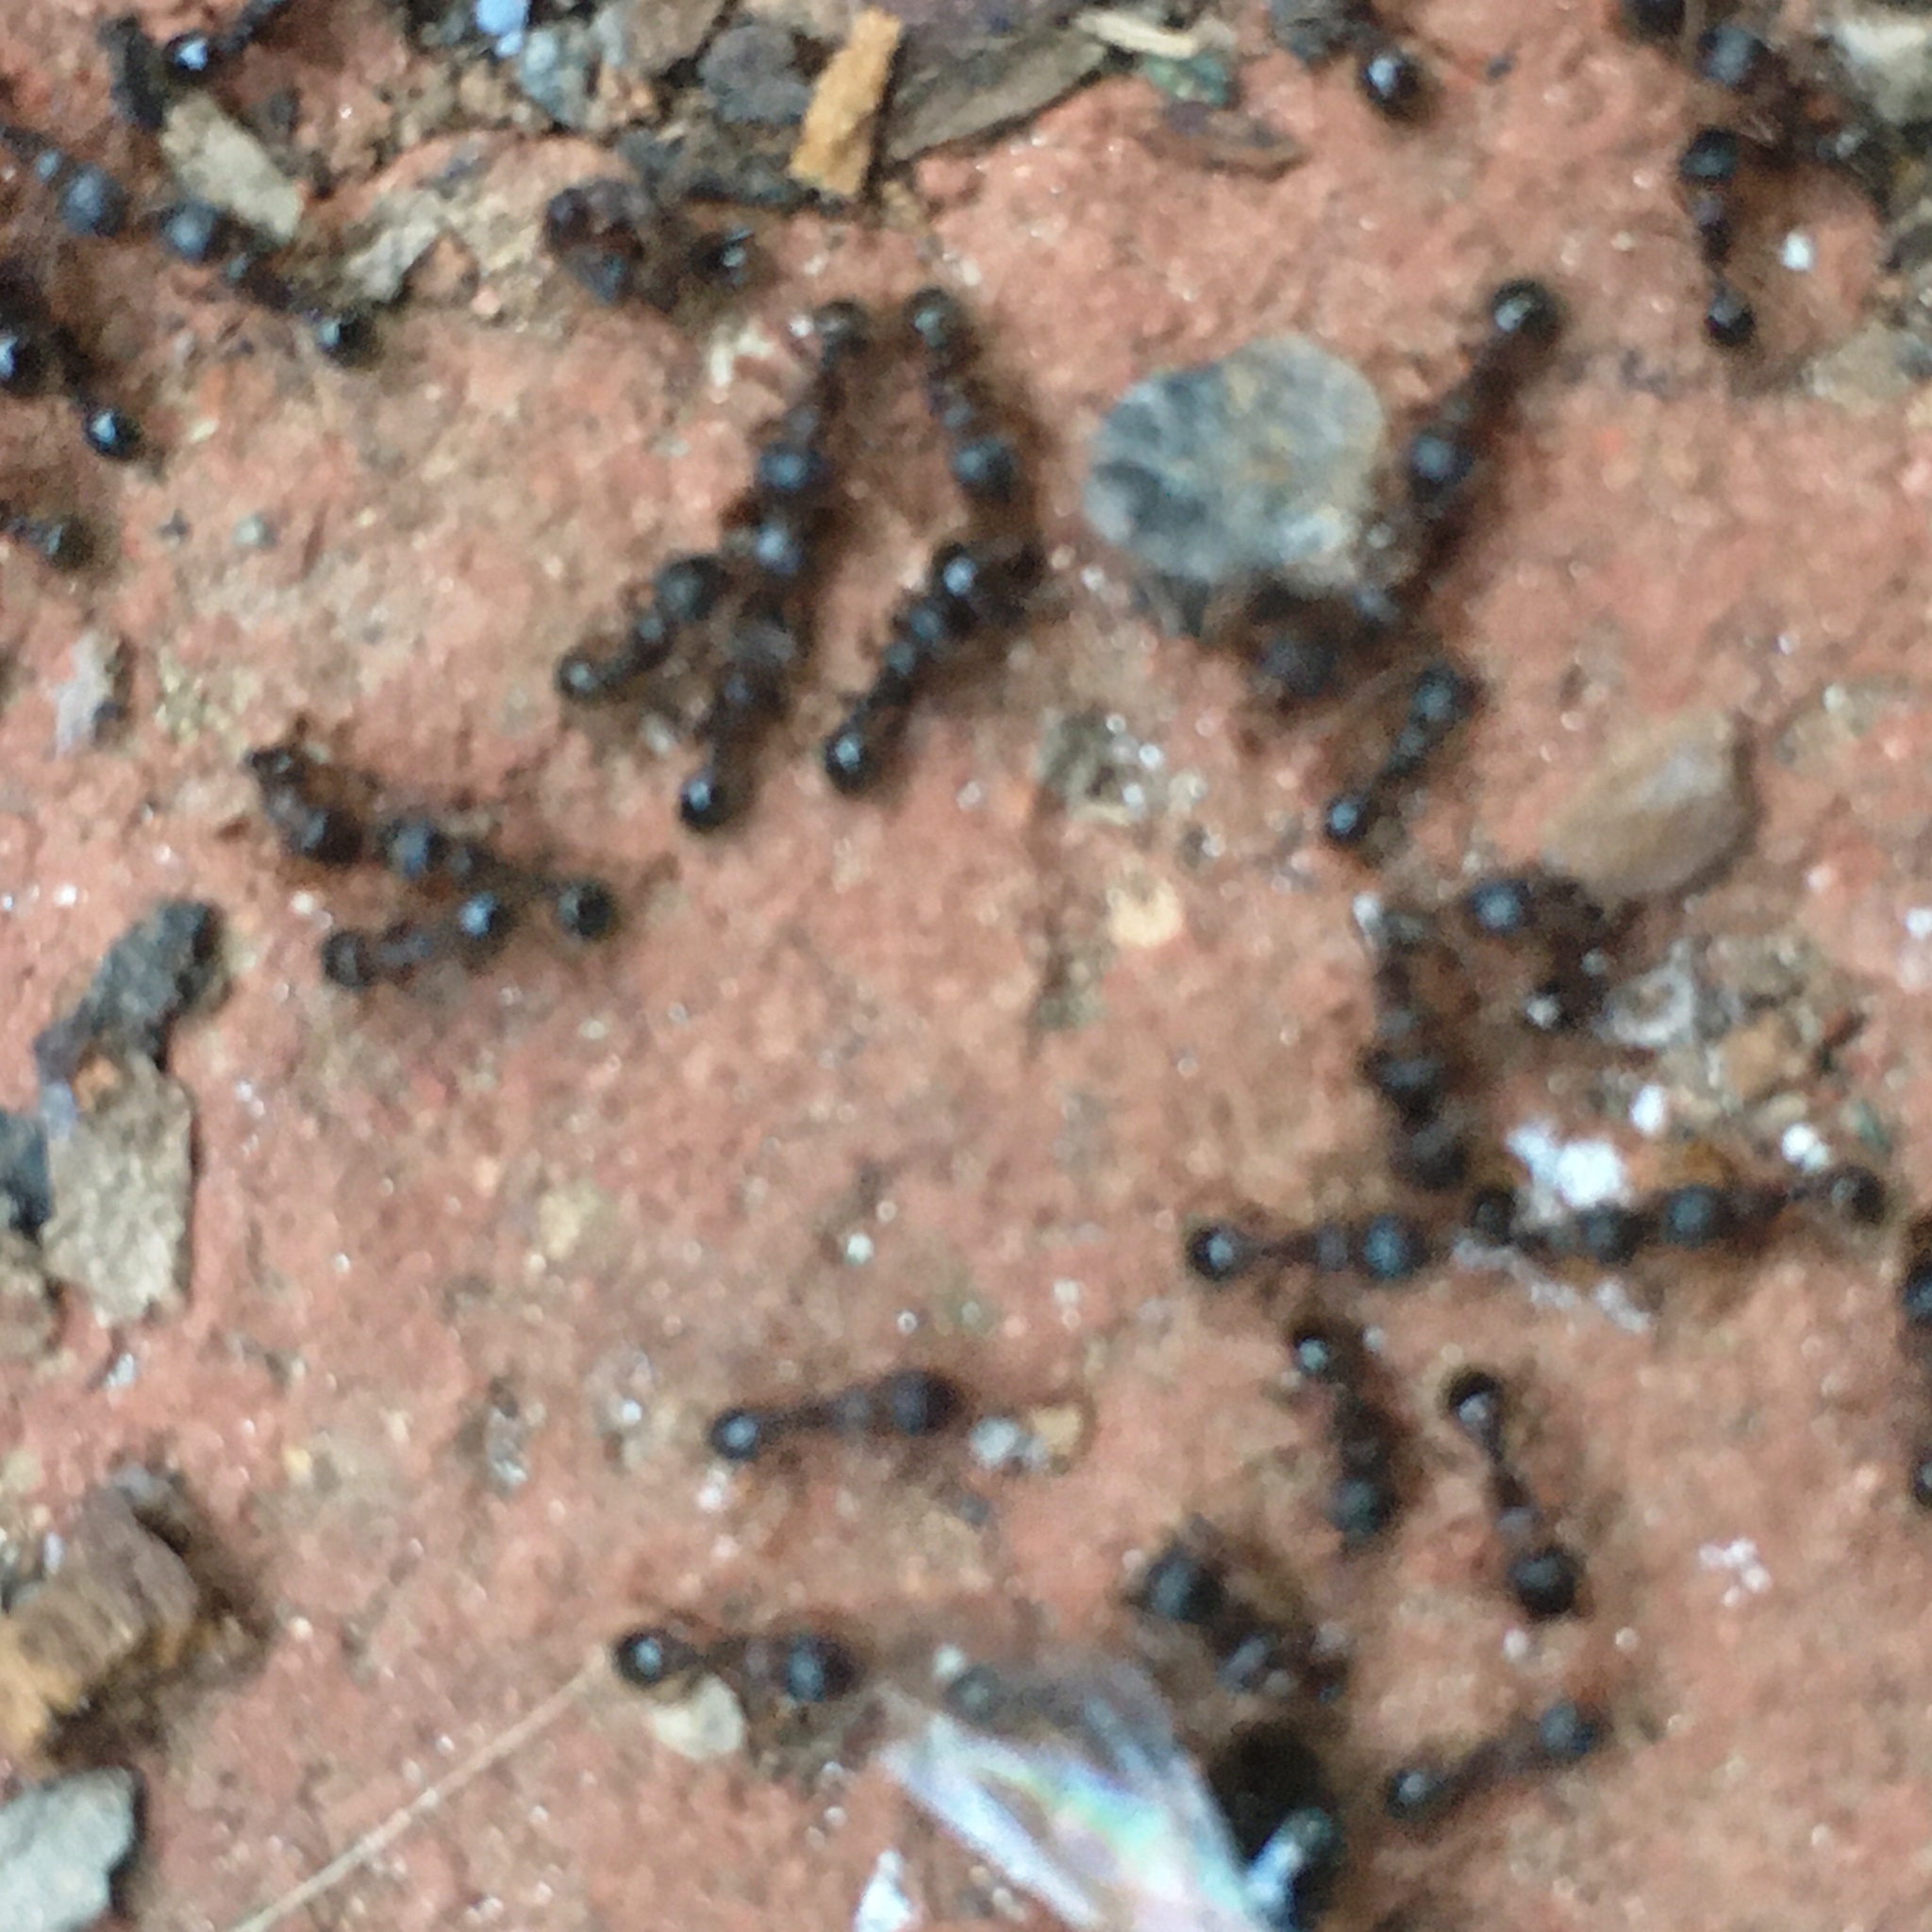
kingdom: Animalia
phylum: Arthropoda
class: Insecta
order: Hymenoptera
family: Formicidae
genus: Tetramorium
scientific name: Tetramorium immigrans
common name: Pavement ant
